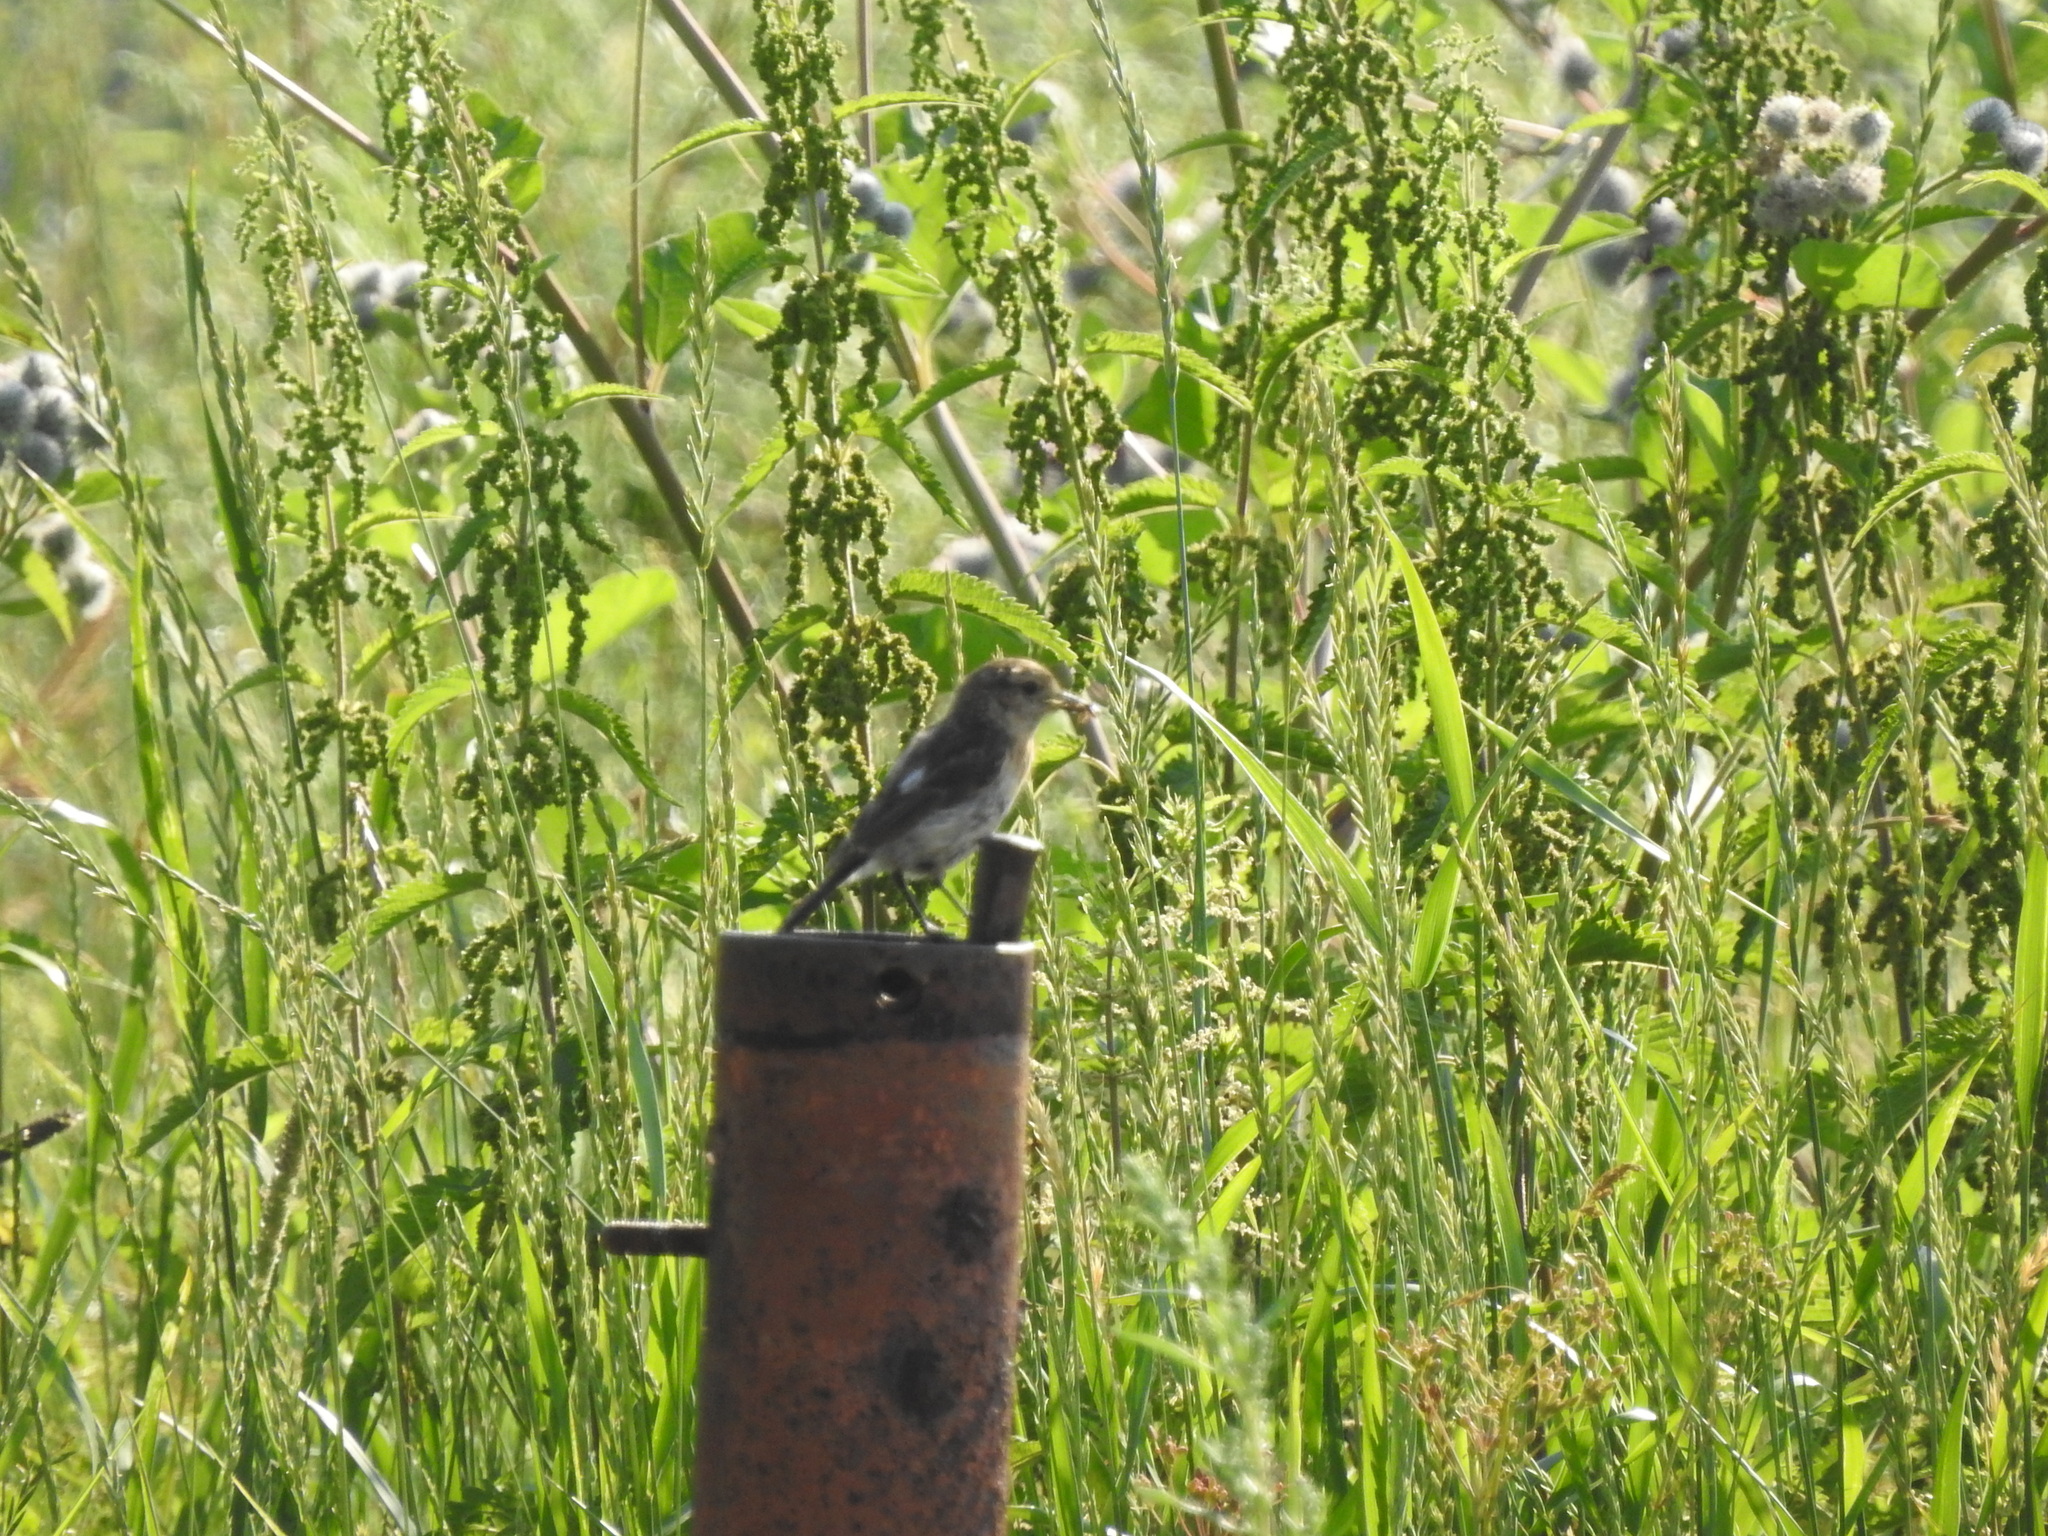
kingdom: Animalia
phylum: Chordata
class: Aves
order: Passeriformes
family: Muscicapidae
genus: Saxicola
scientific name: Saxicola maurus
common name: Siberian stonechat
